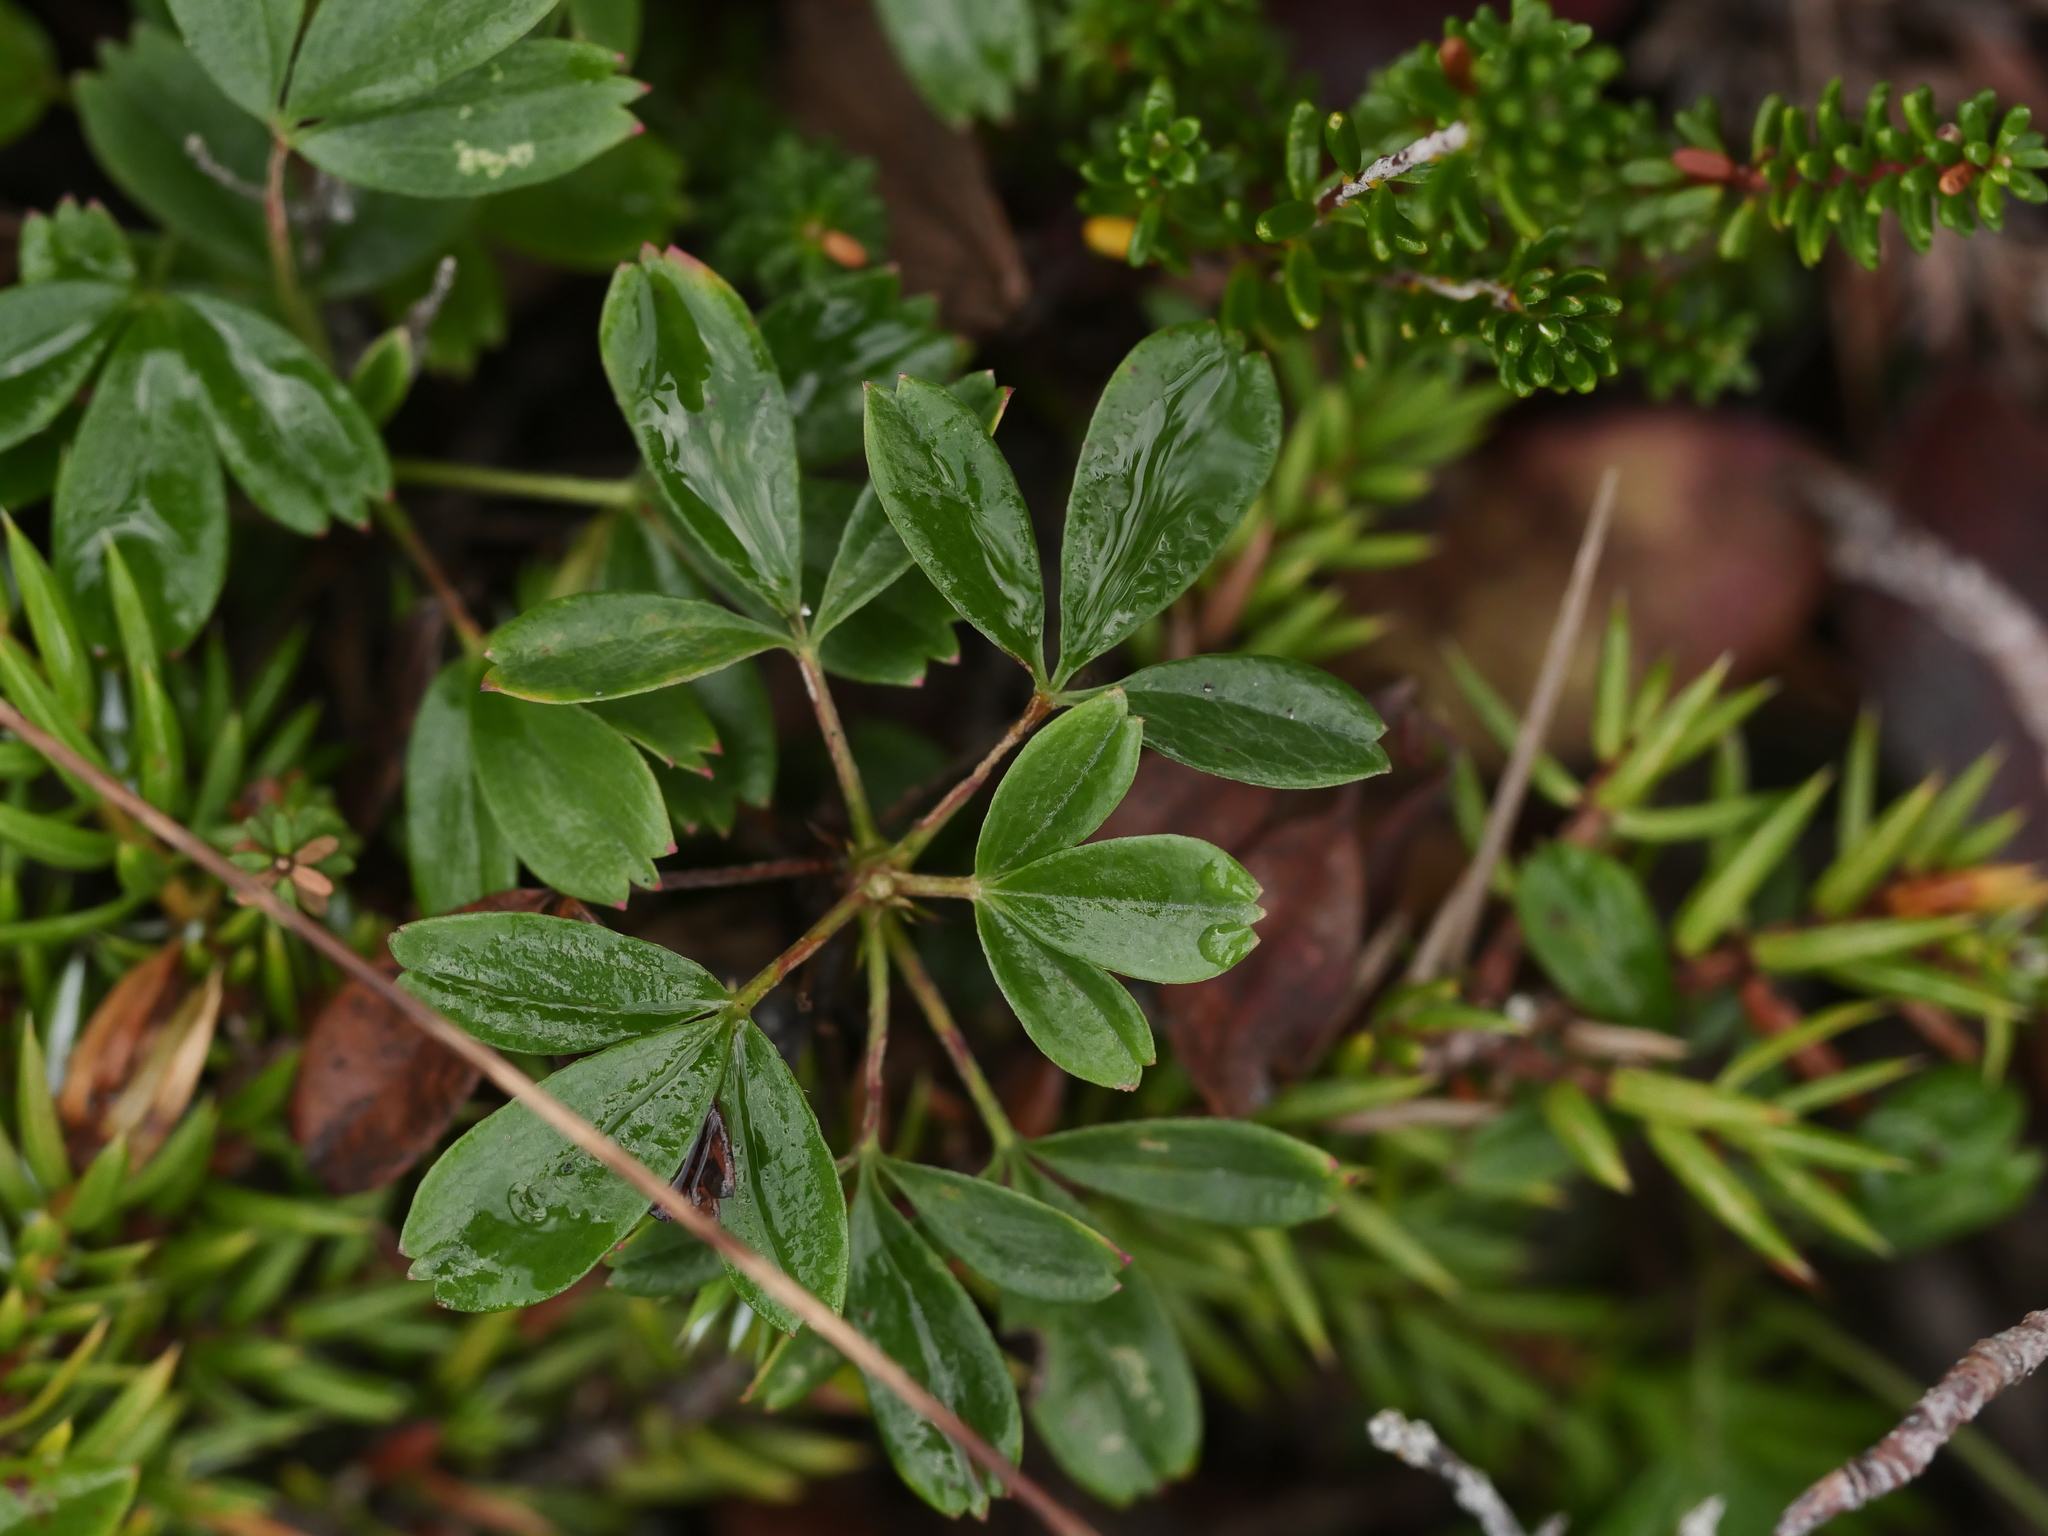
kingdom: Plantae
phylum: Tracheophyta
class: Magnoliopsida
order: Rosales
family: Rosaceae
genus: Sibbaldia
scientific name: Sibbaldia tridentata
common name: Three-toothed cinquefoil
